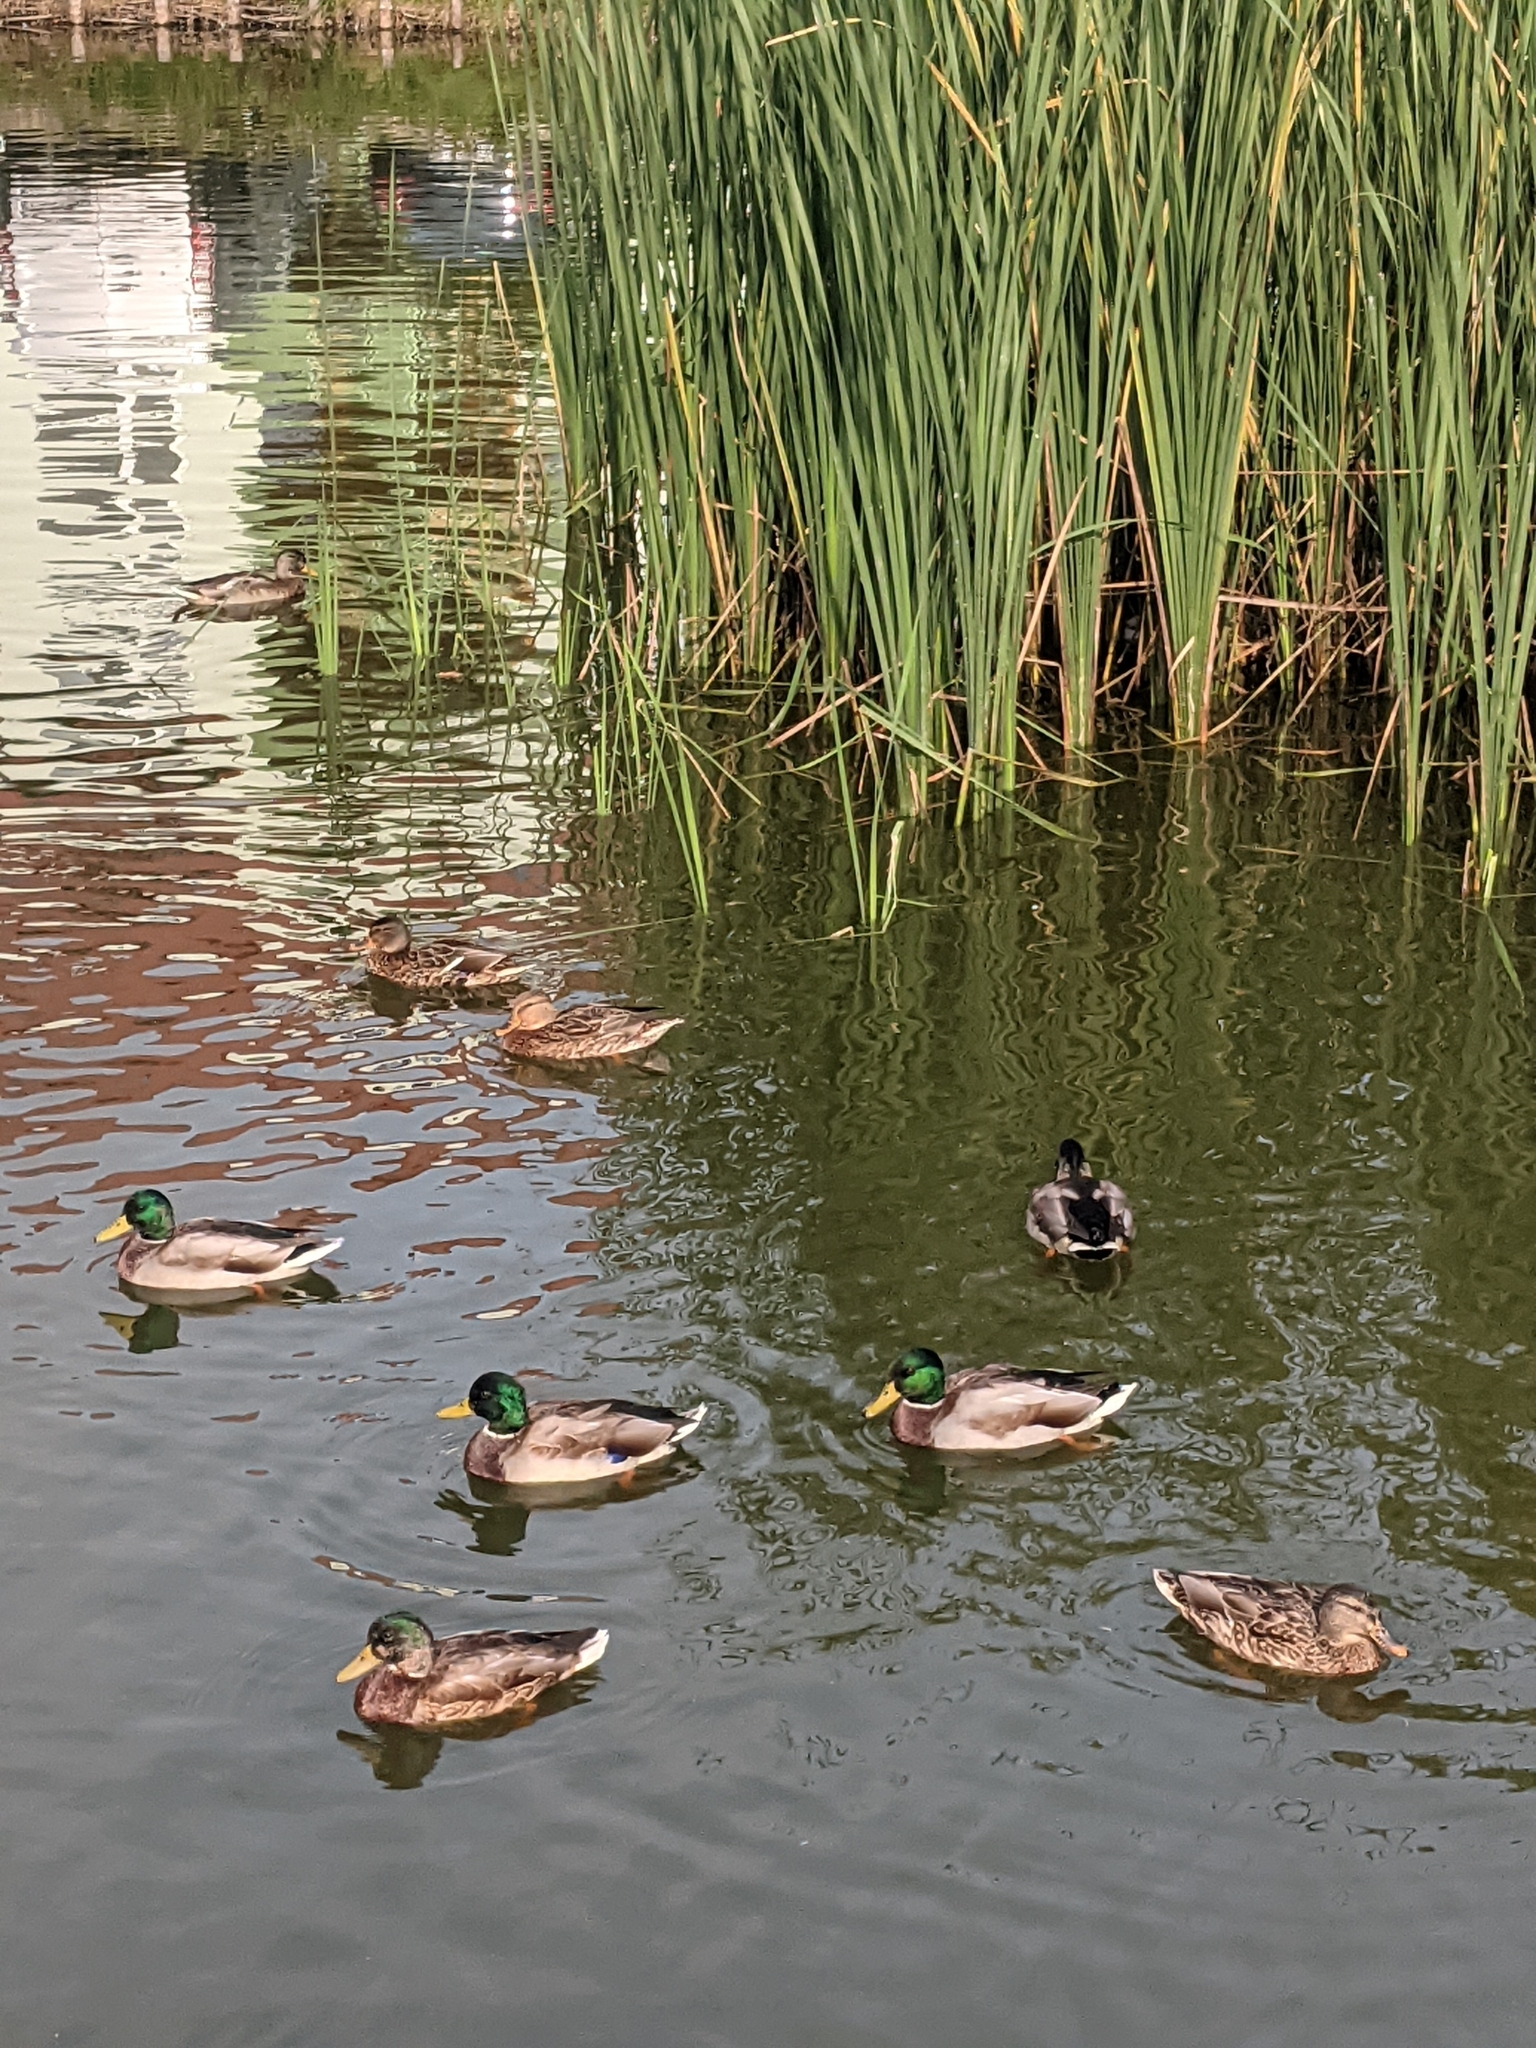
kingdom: Animalia
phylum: Chordata
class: Aves
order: Anseriformes
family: Anatidae
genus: Anas
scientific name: Anas platyrhynchos
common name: Mallard
